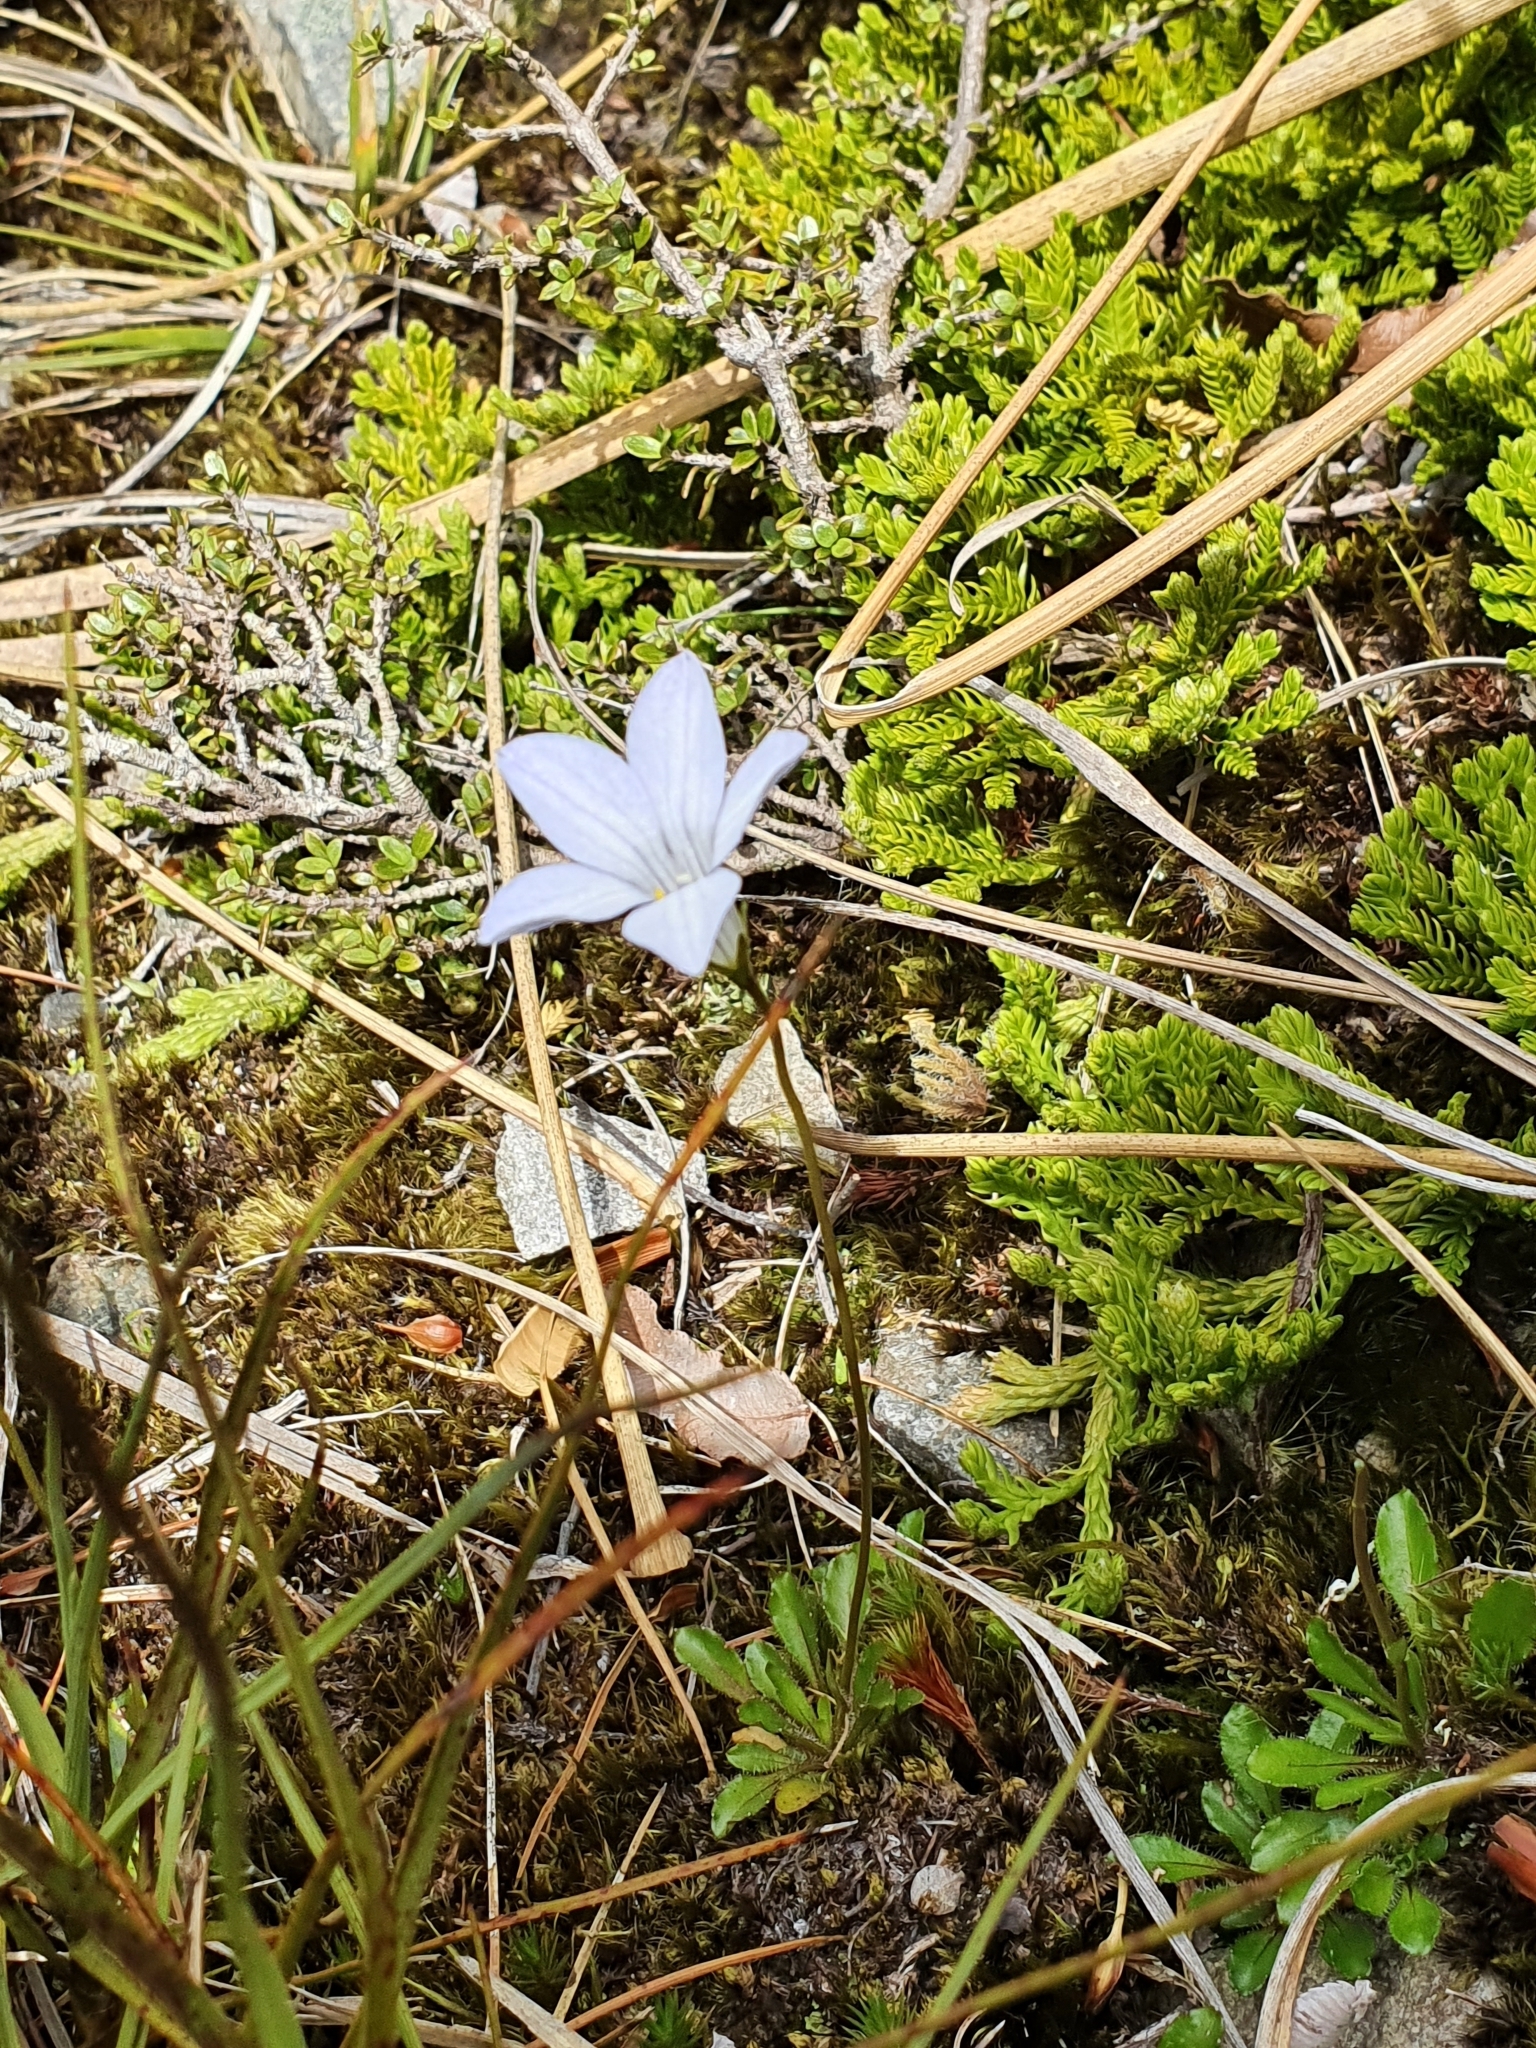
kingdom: Plantae
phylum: Tracheophyta
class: Magnoliopsida
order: Asterales
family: Campanulaceae
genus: Wahlenbergia
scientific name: Wahlenbergia albomarginata
